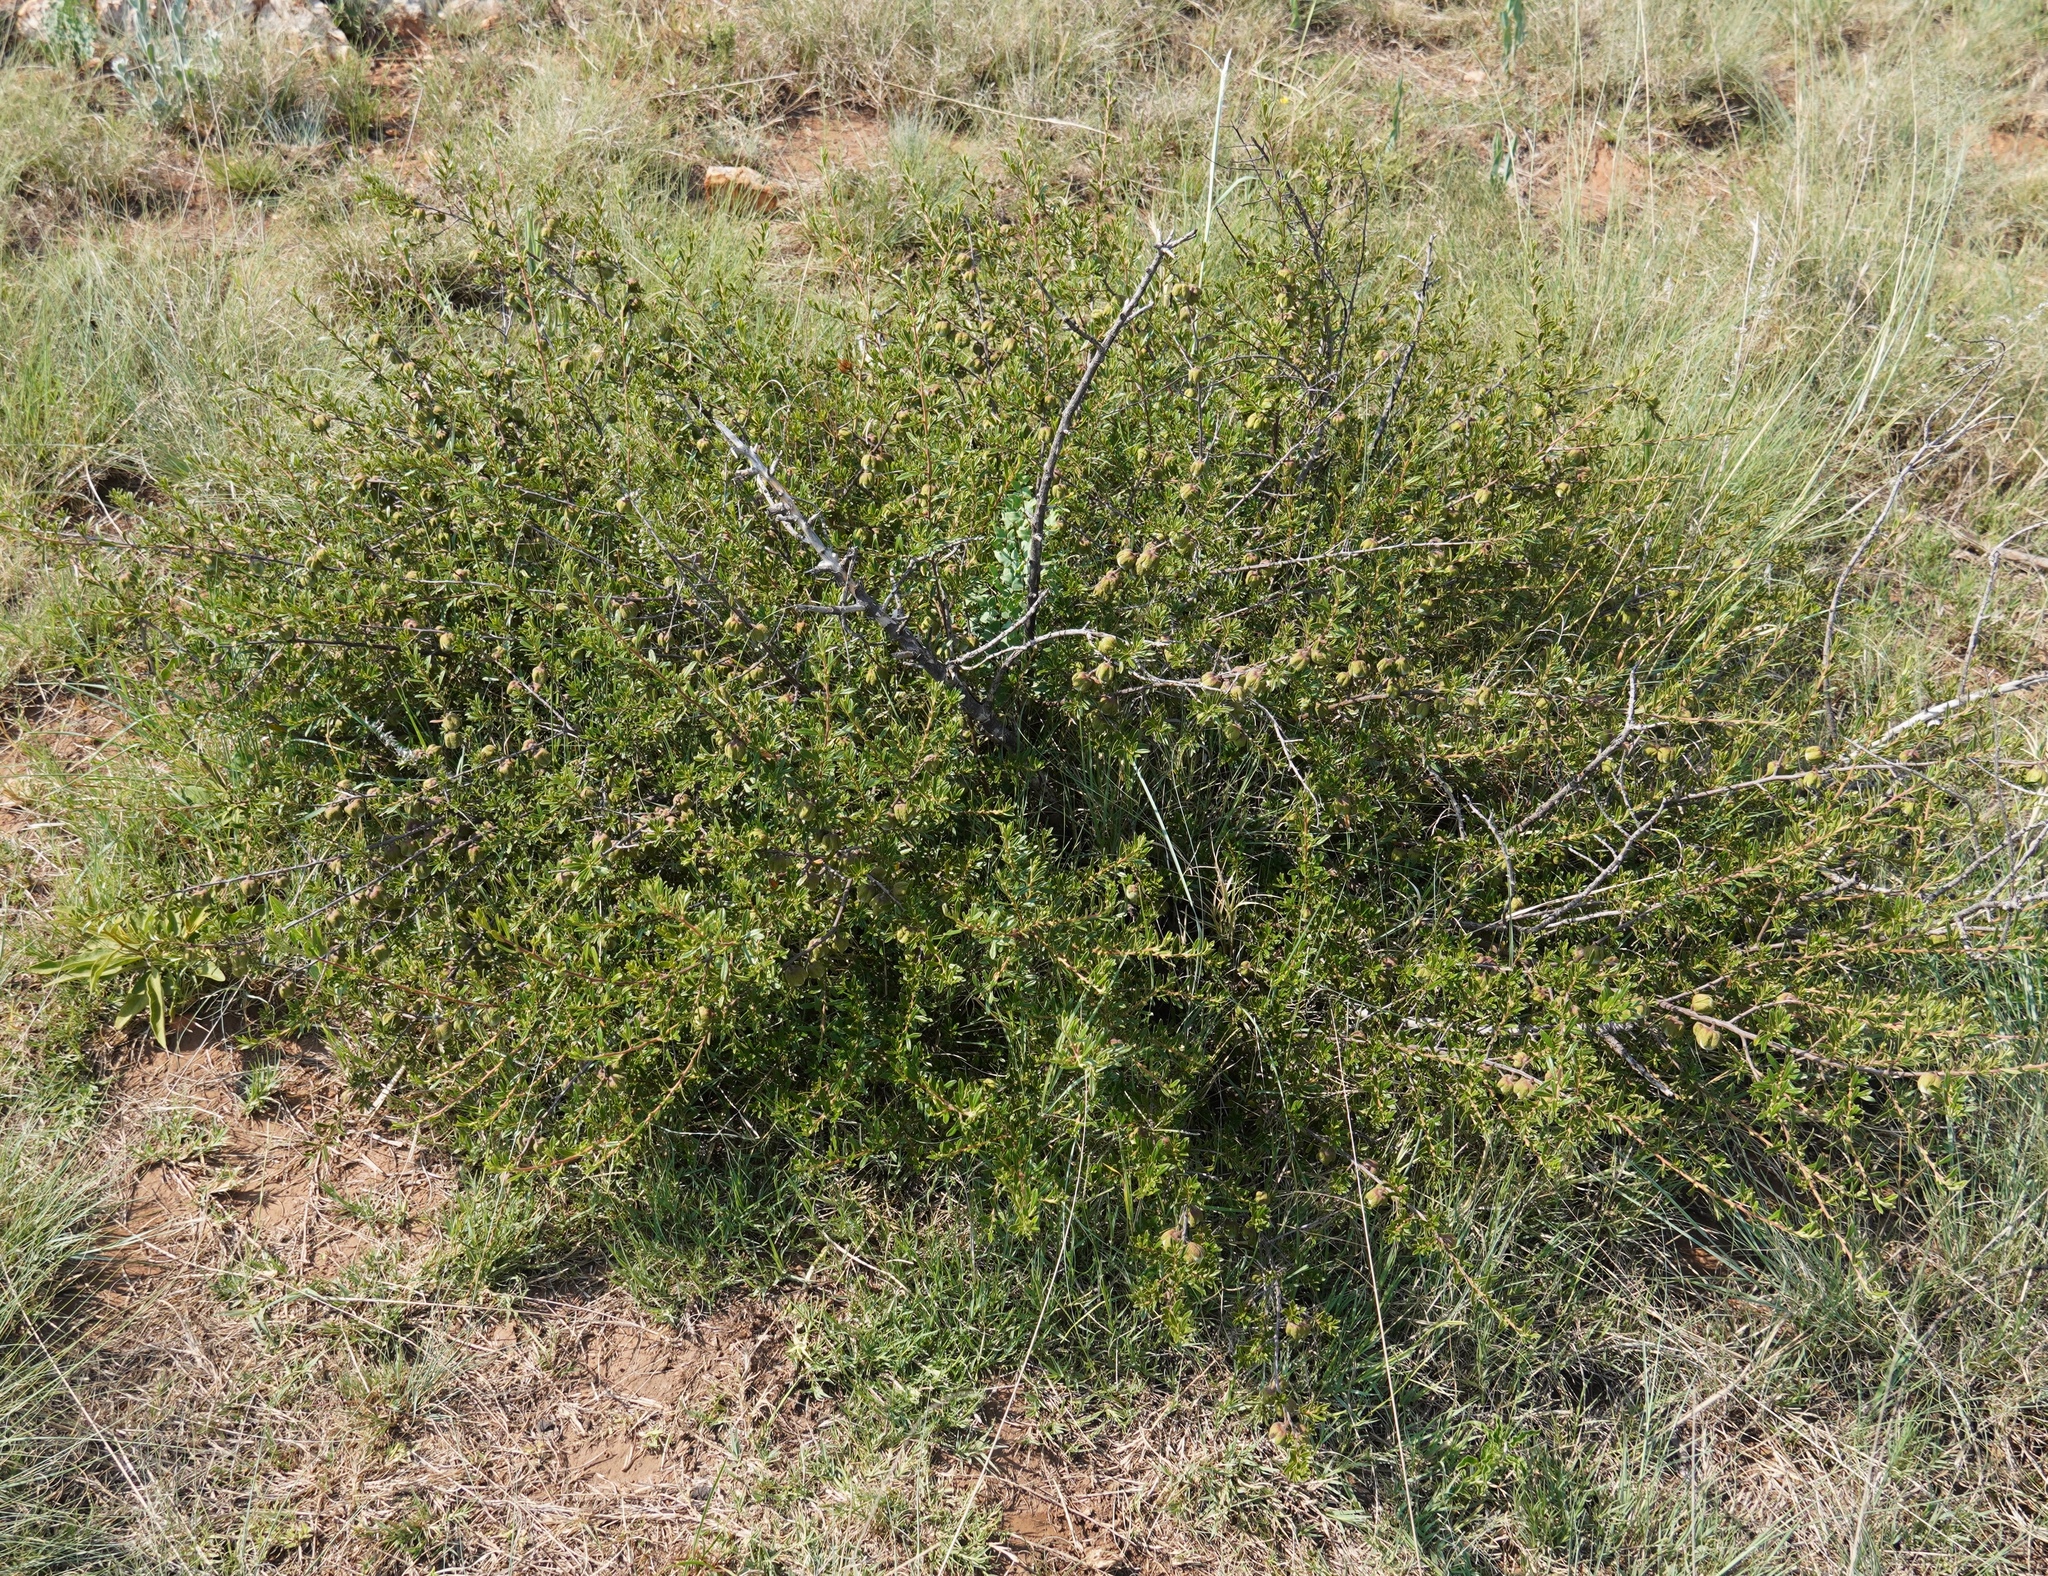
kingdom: Plantae
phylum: Tracheophyta
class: Magnoliopsida
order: Ericales
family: Ebenaceae
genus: Diospyros
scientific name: Diospyros pubescens
